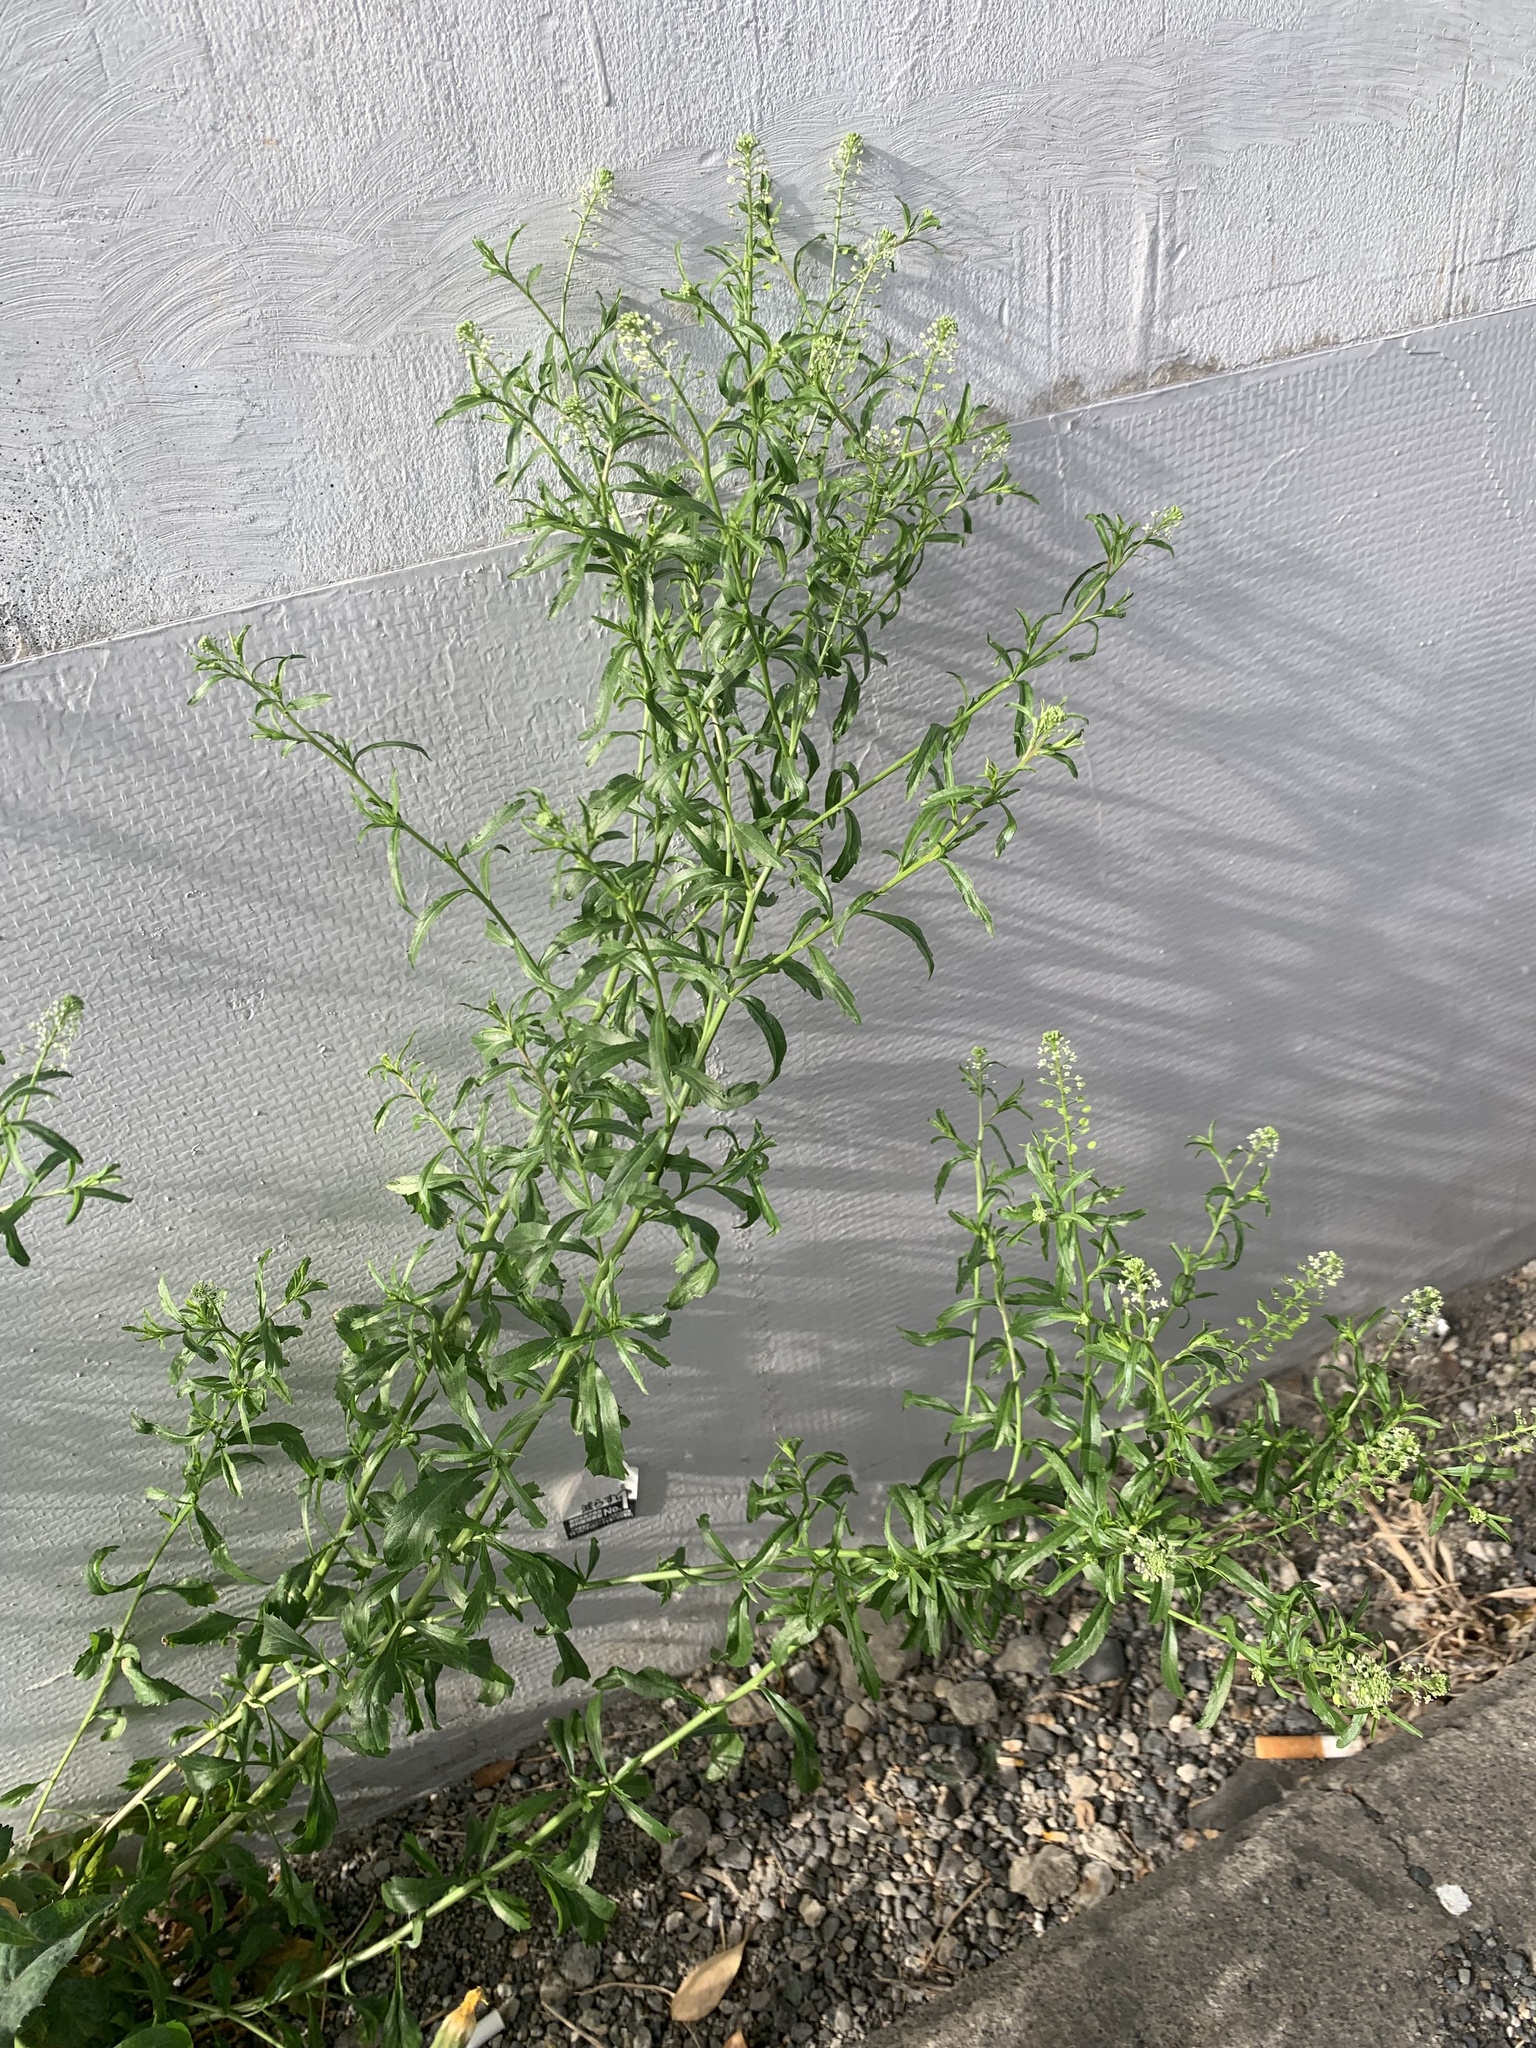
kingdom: Plantae
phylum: Tracheophyta
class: Magnoliopsida
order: Brassicales
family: Brassicaceae
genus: Lepidium
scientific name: Lepidium virginicum
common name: Least pepperwort
